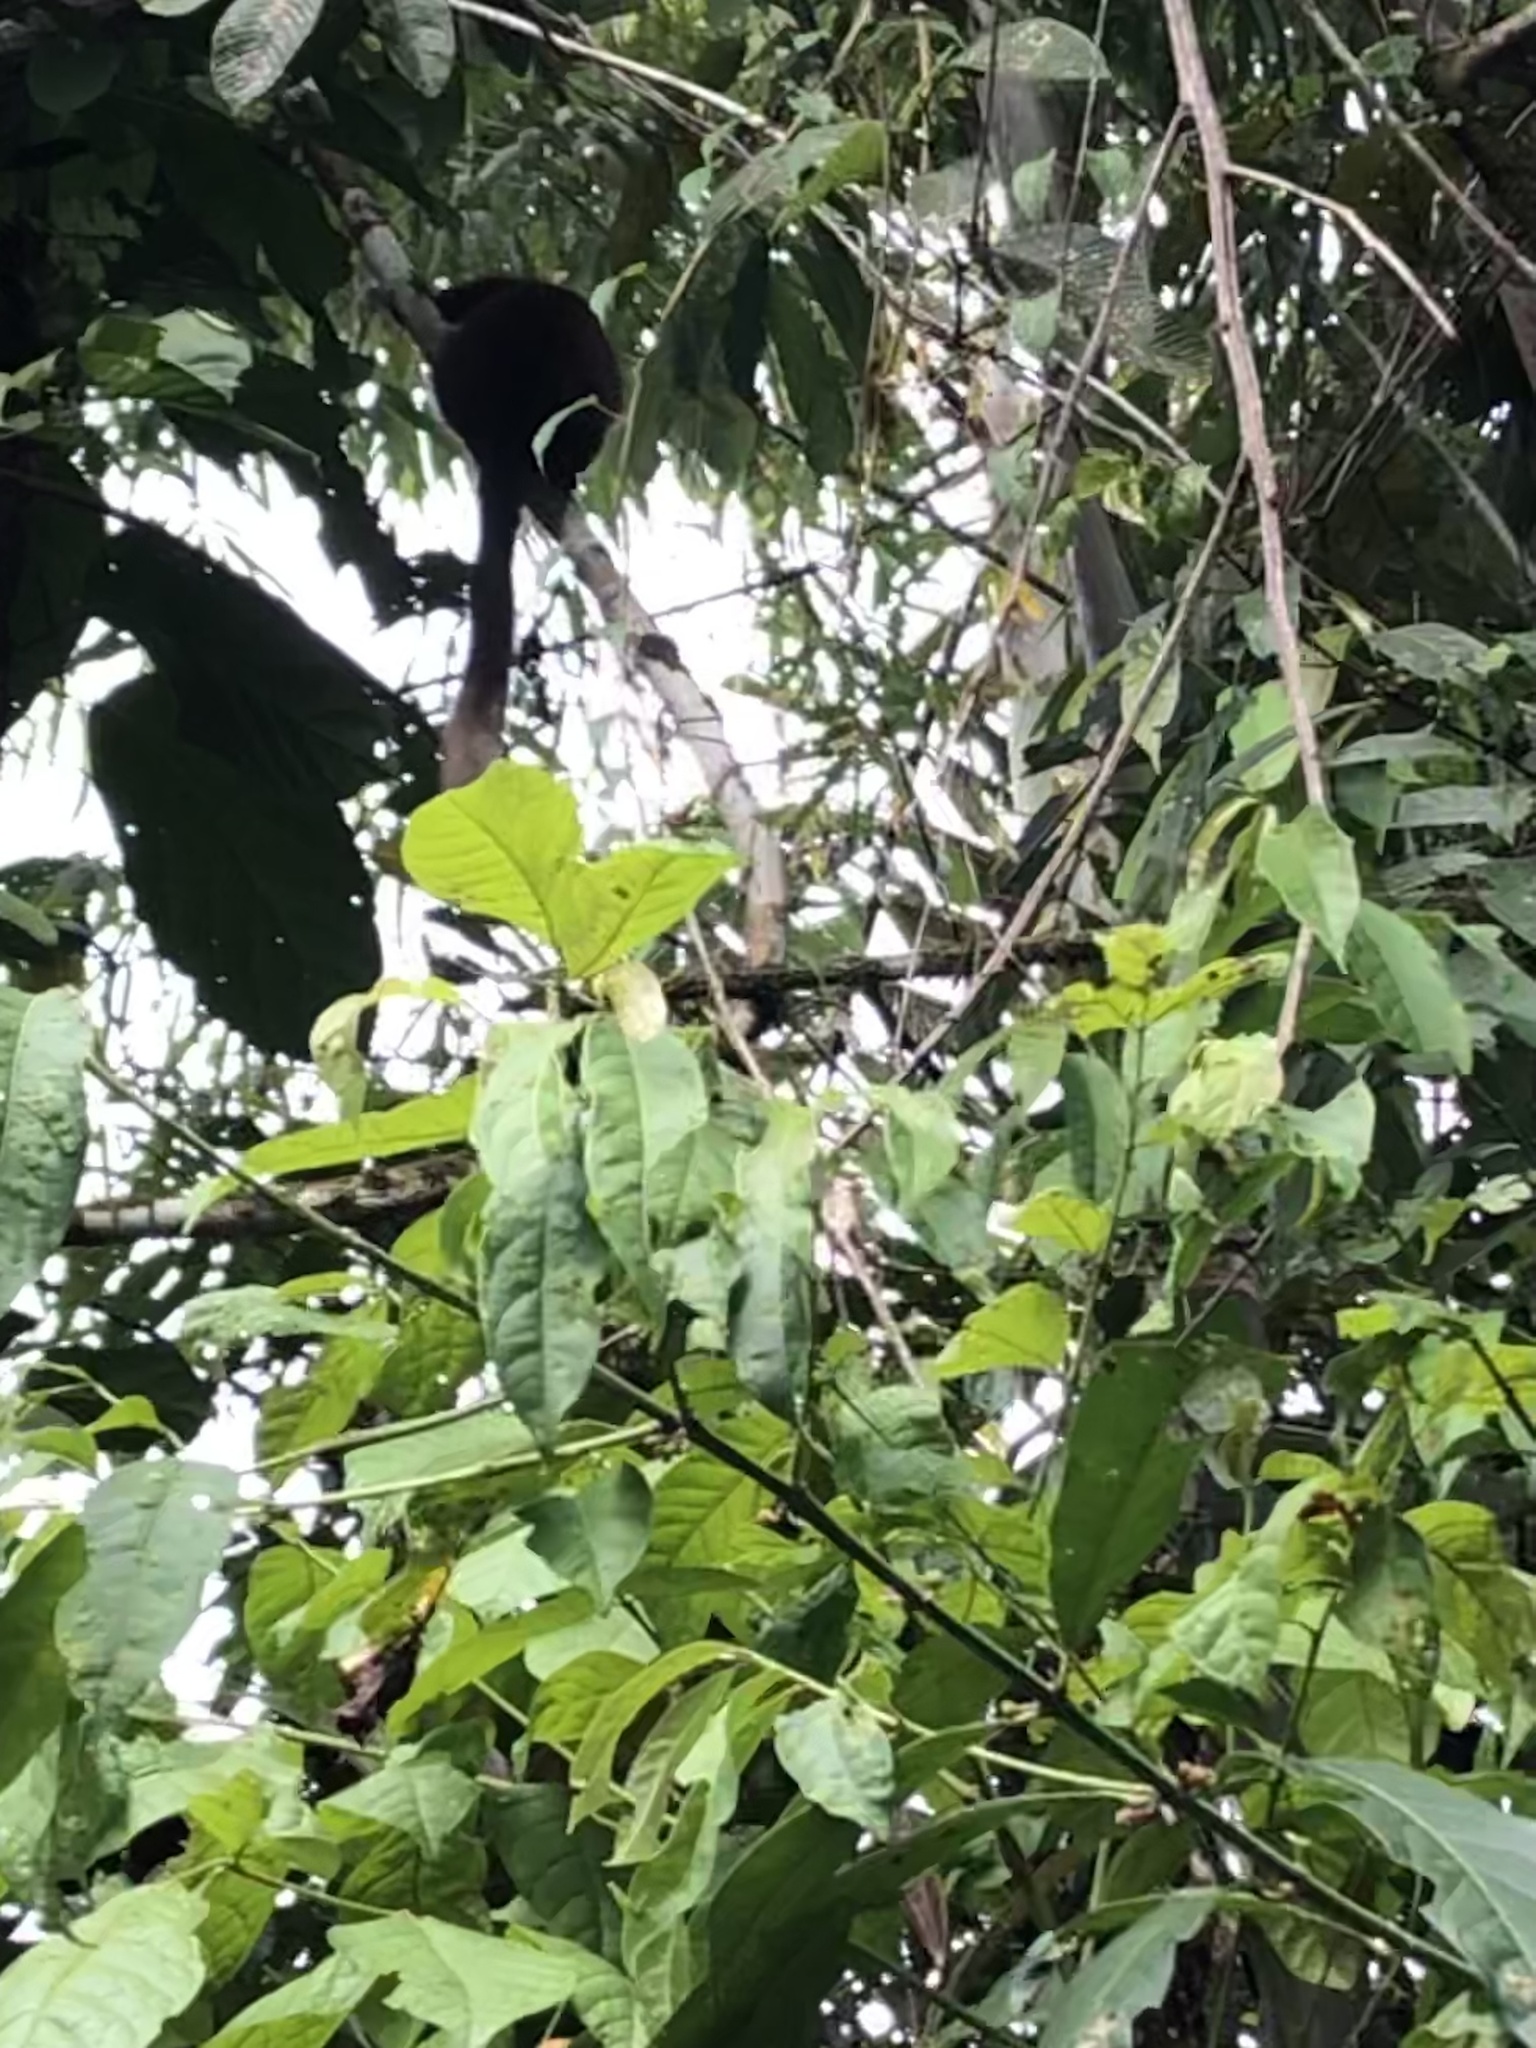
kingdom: Animalia
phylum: Chordata
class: Mammalia
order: Primates
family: Pitheciidae
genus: Plecturocebus
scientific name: Plecturocebus toppini
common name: Toppin's titi
